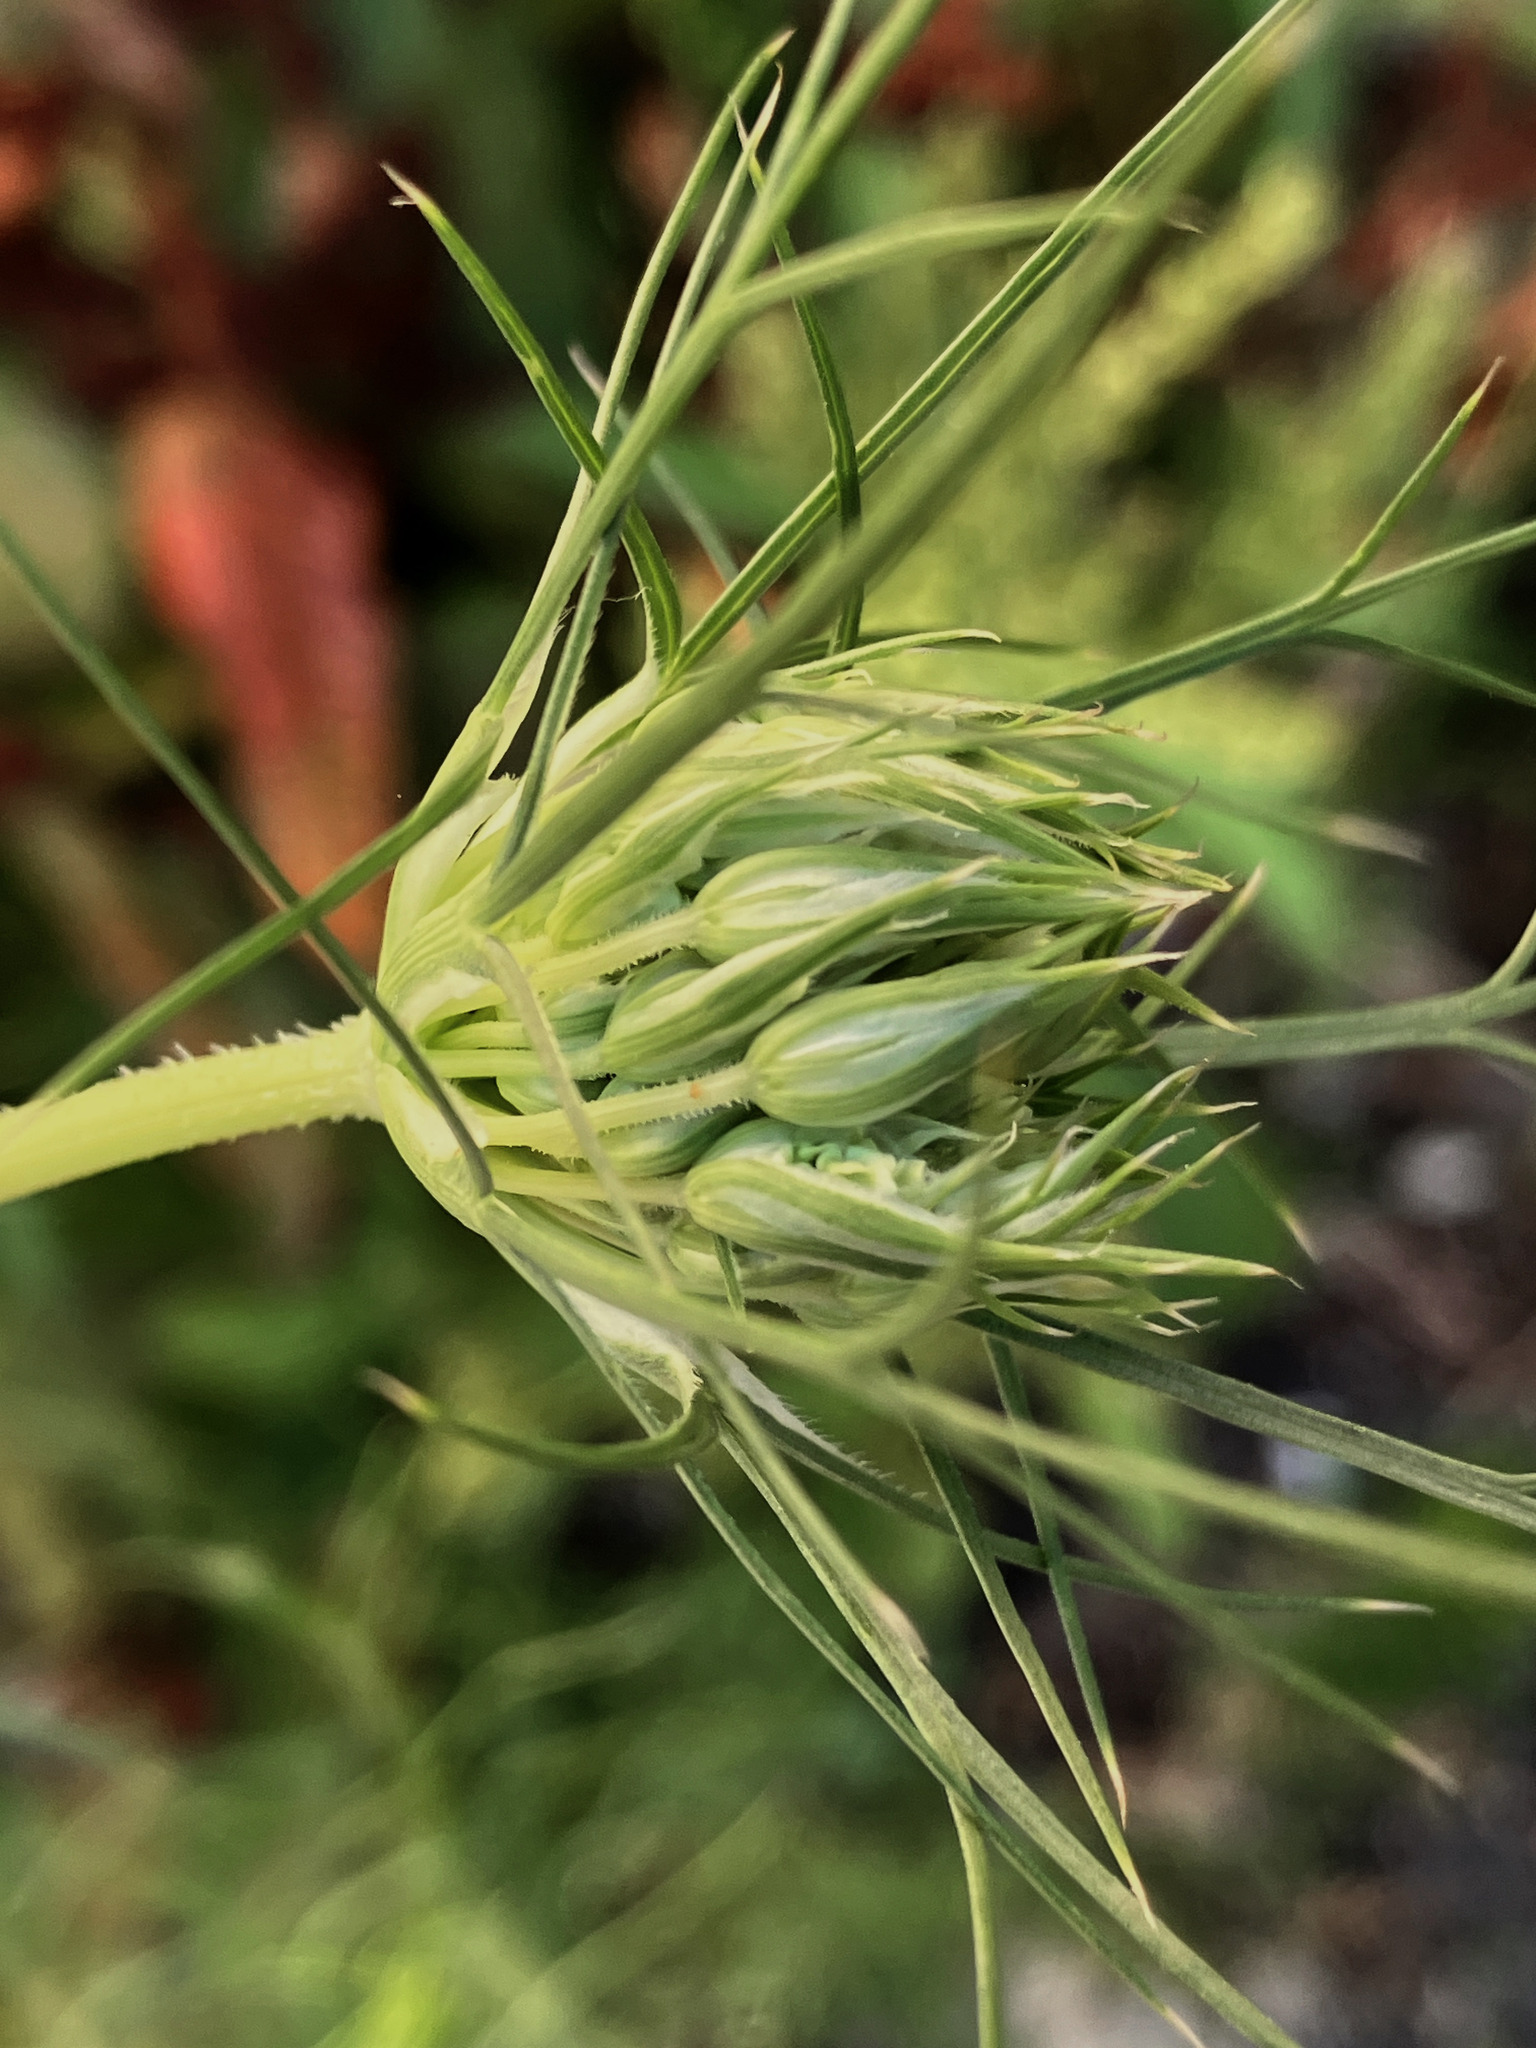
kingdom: Plantae
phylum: Tracheophyta
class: Magnoliopsida
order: Apiales
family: Apiaceae
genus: Daucus
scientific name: Daucus carota
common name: Wild carrot
